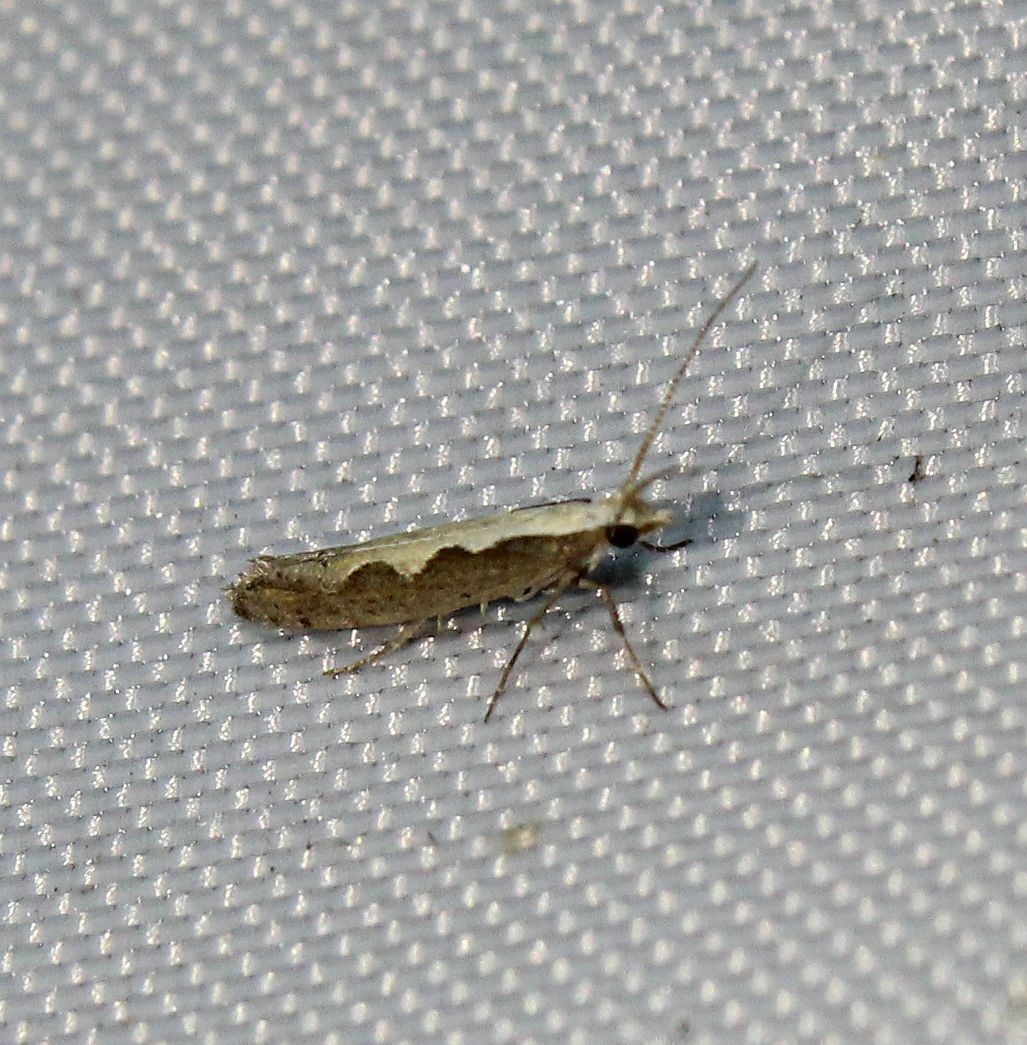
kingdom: Animalia
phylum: Arthropoda
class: Insecta
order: Lepidoptera
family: Plutellidae
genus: Plutella
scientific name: Plutella xylostella
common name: Diamond-back moth
